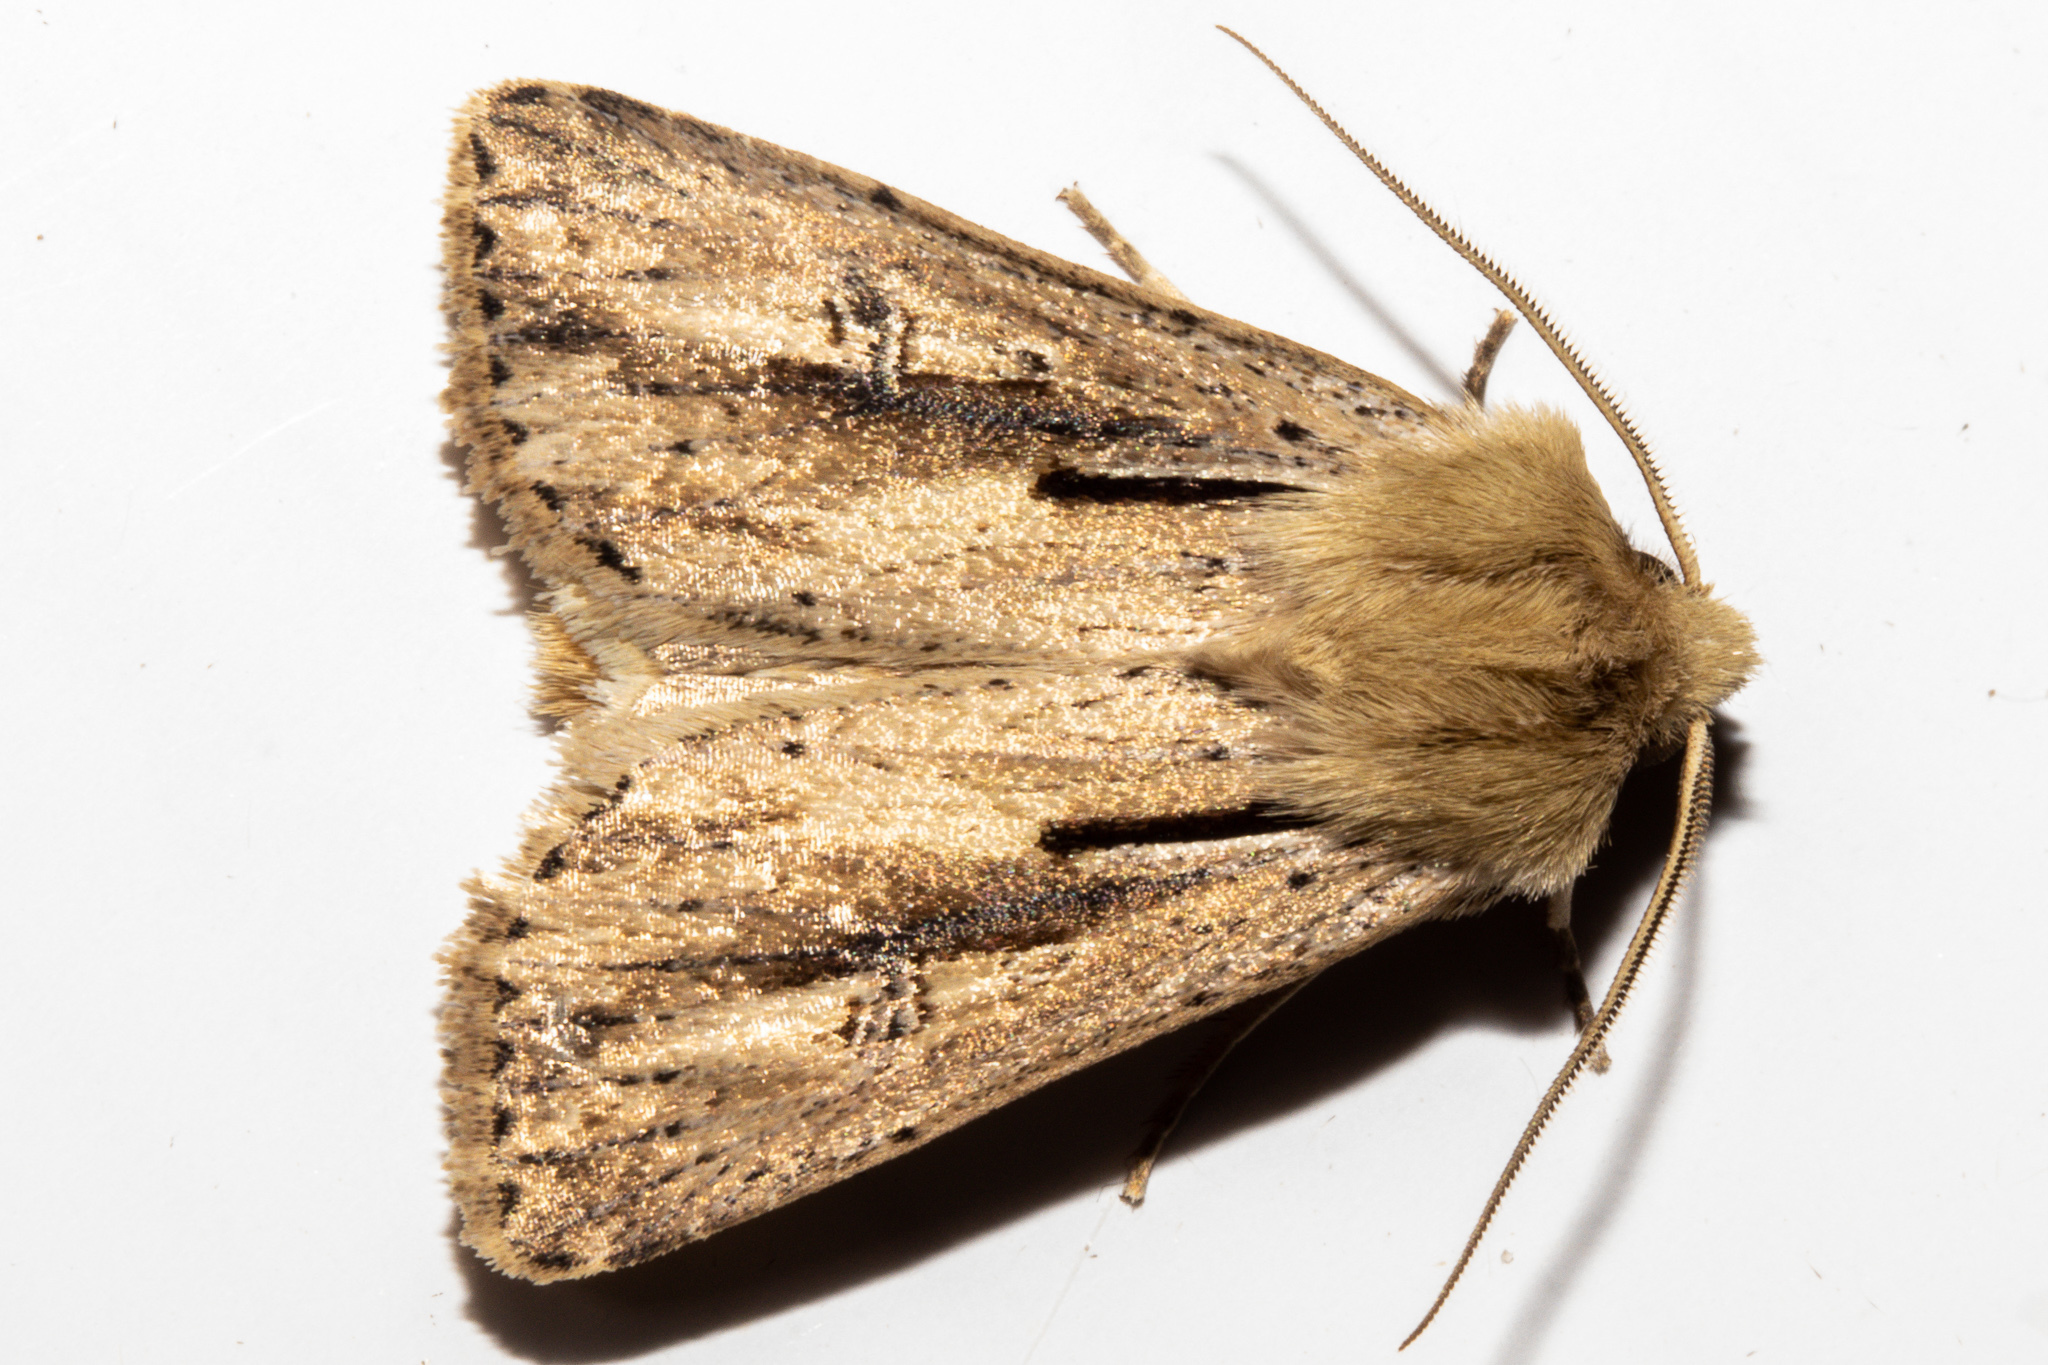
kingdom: Animalia
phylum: Arthropoda
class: Insecta
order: Lepidoptera
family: Noctuidae
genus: Ichneutica
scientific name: Ichneutica propria
